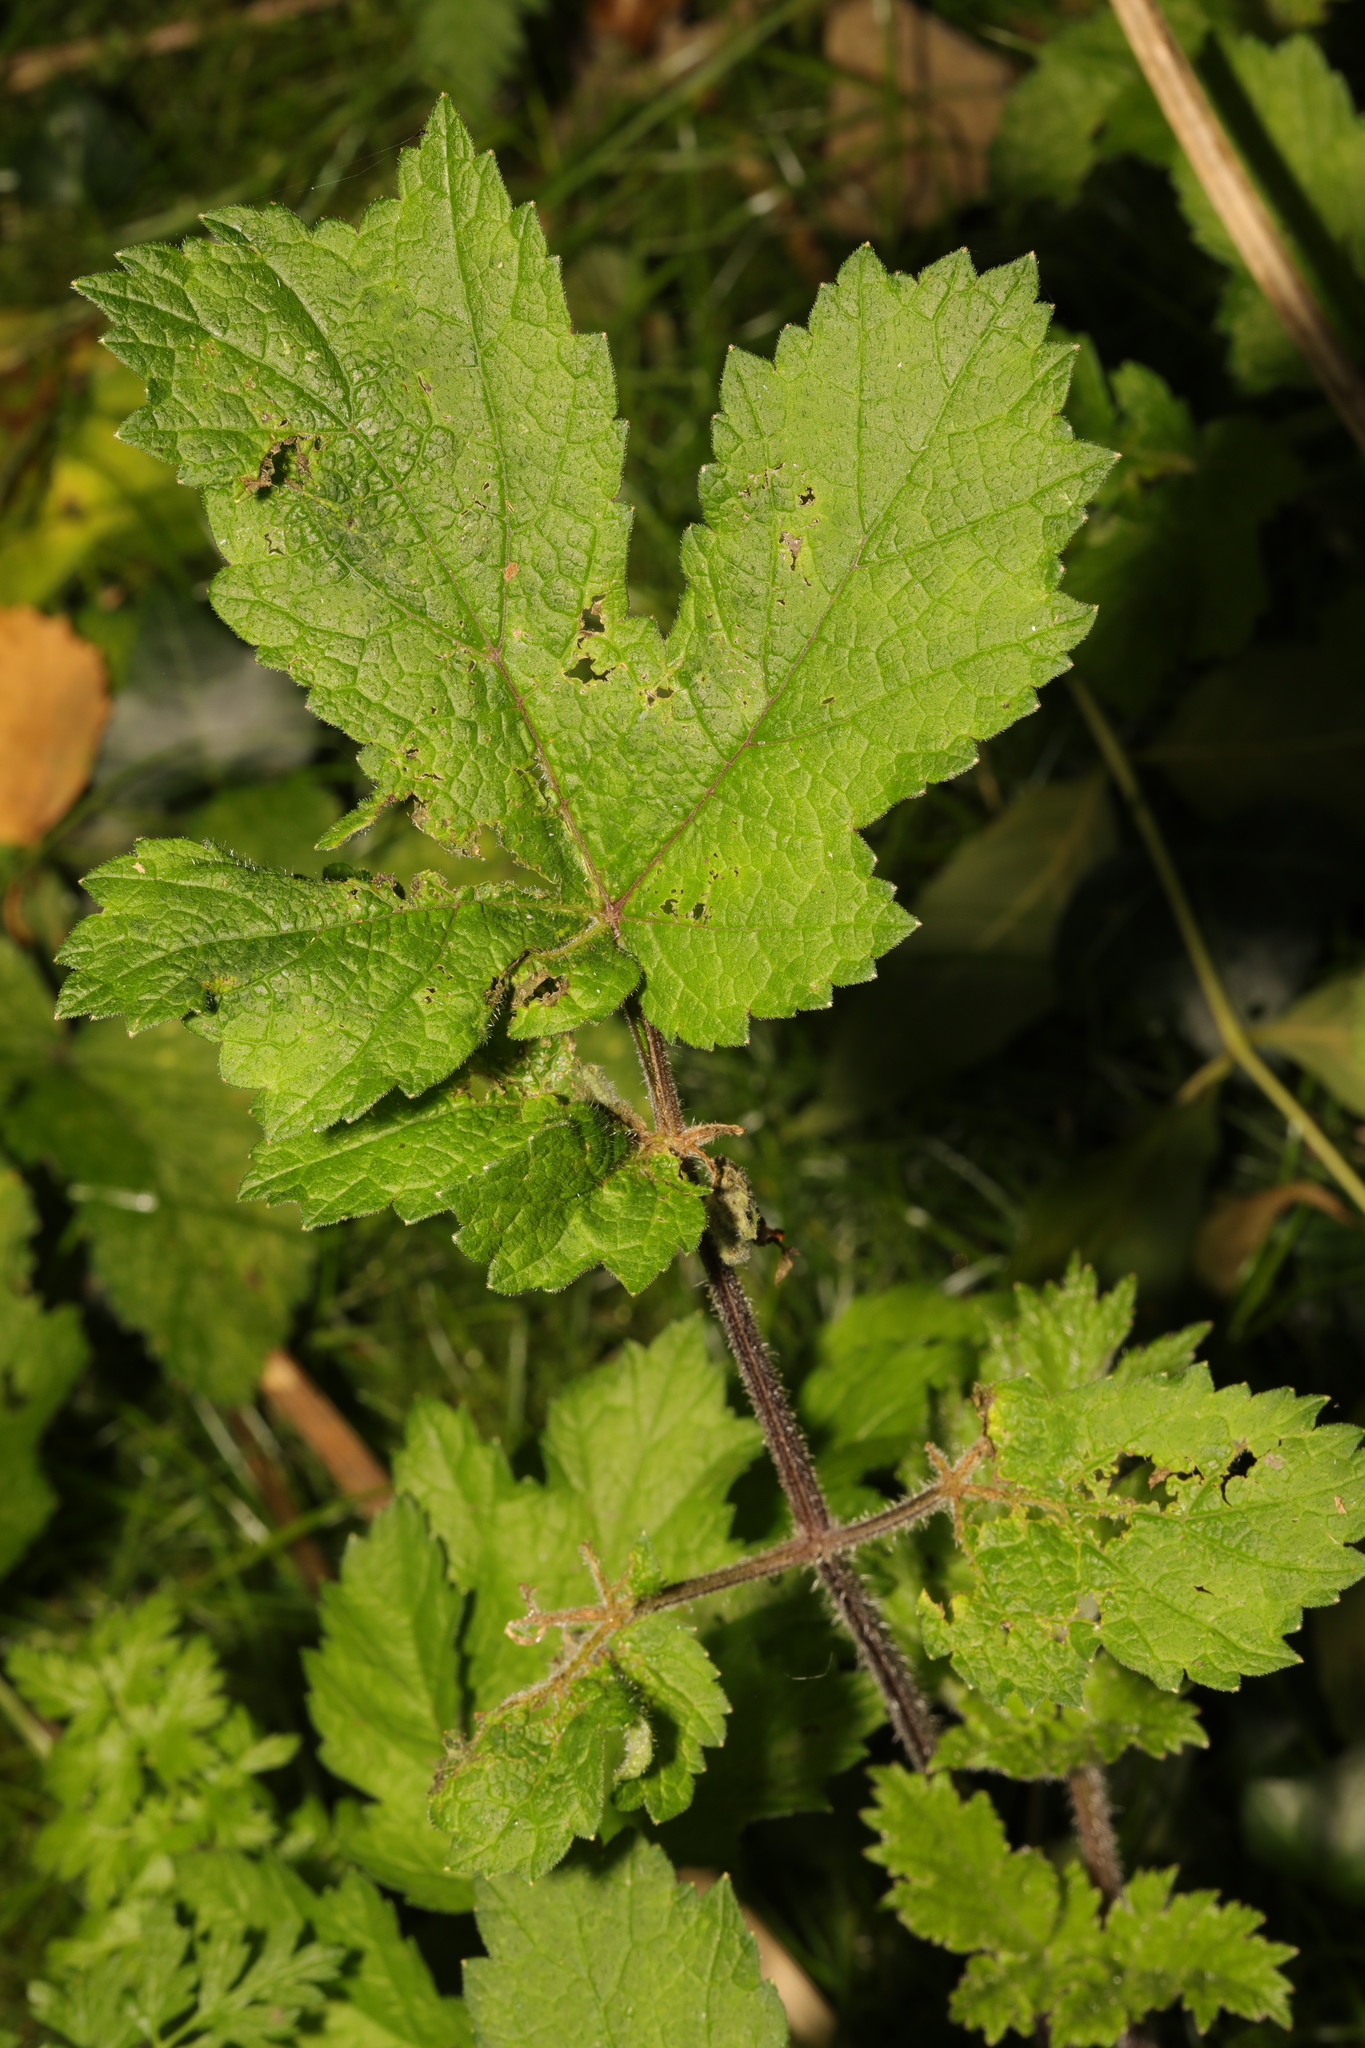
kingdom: Plantae
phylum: Tracheophyta
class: Magnoliopsida
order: Apiales
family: Apiaceae
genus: Heracleum
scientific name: Heracleum sphondylium
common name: Hogweed
